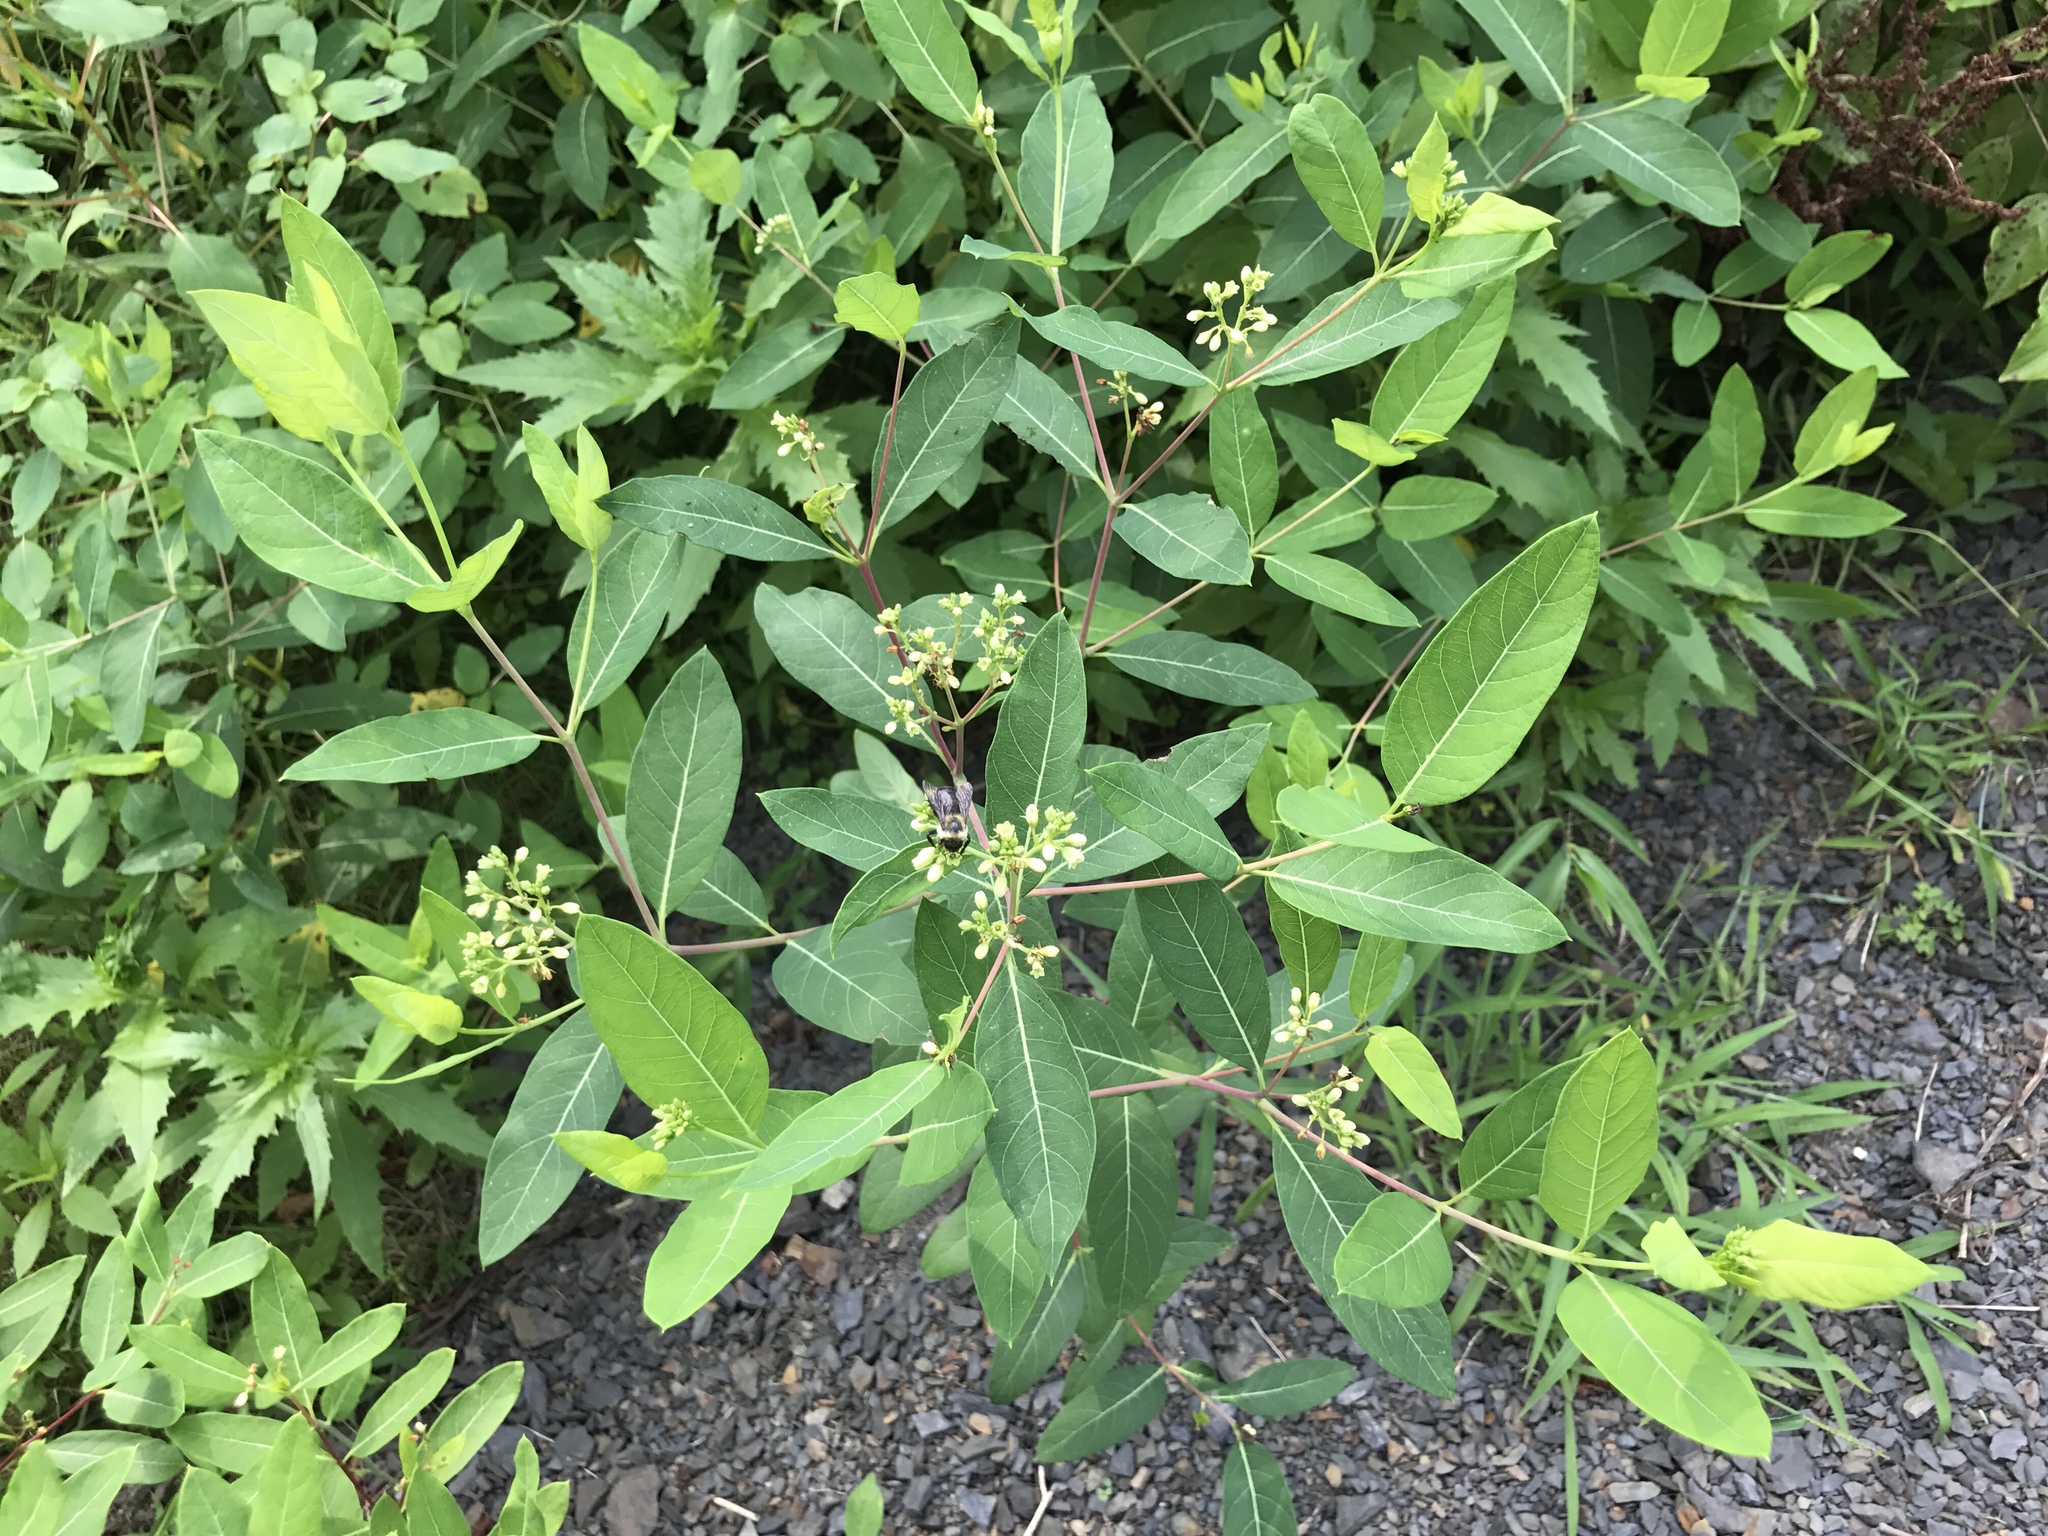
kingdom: Plantae
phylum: Tracheophyta
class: Magnoliopsida
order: Gentianales
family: Apocynaceae
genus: Apocynum
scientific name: Apocynum cannabinum
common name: Hemp dogbane
